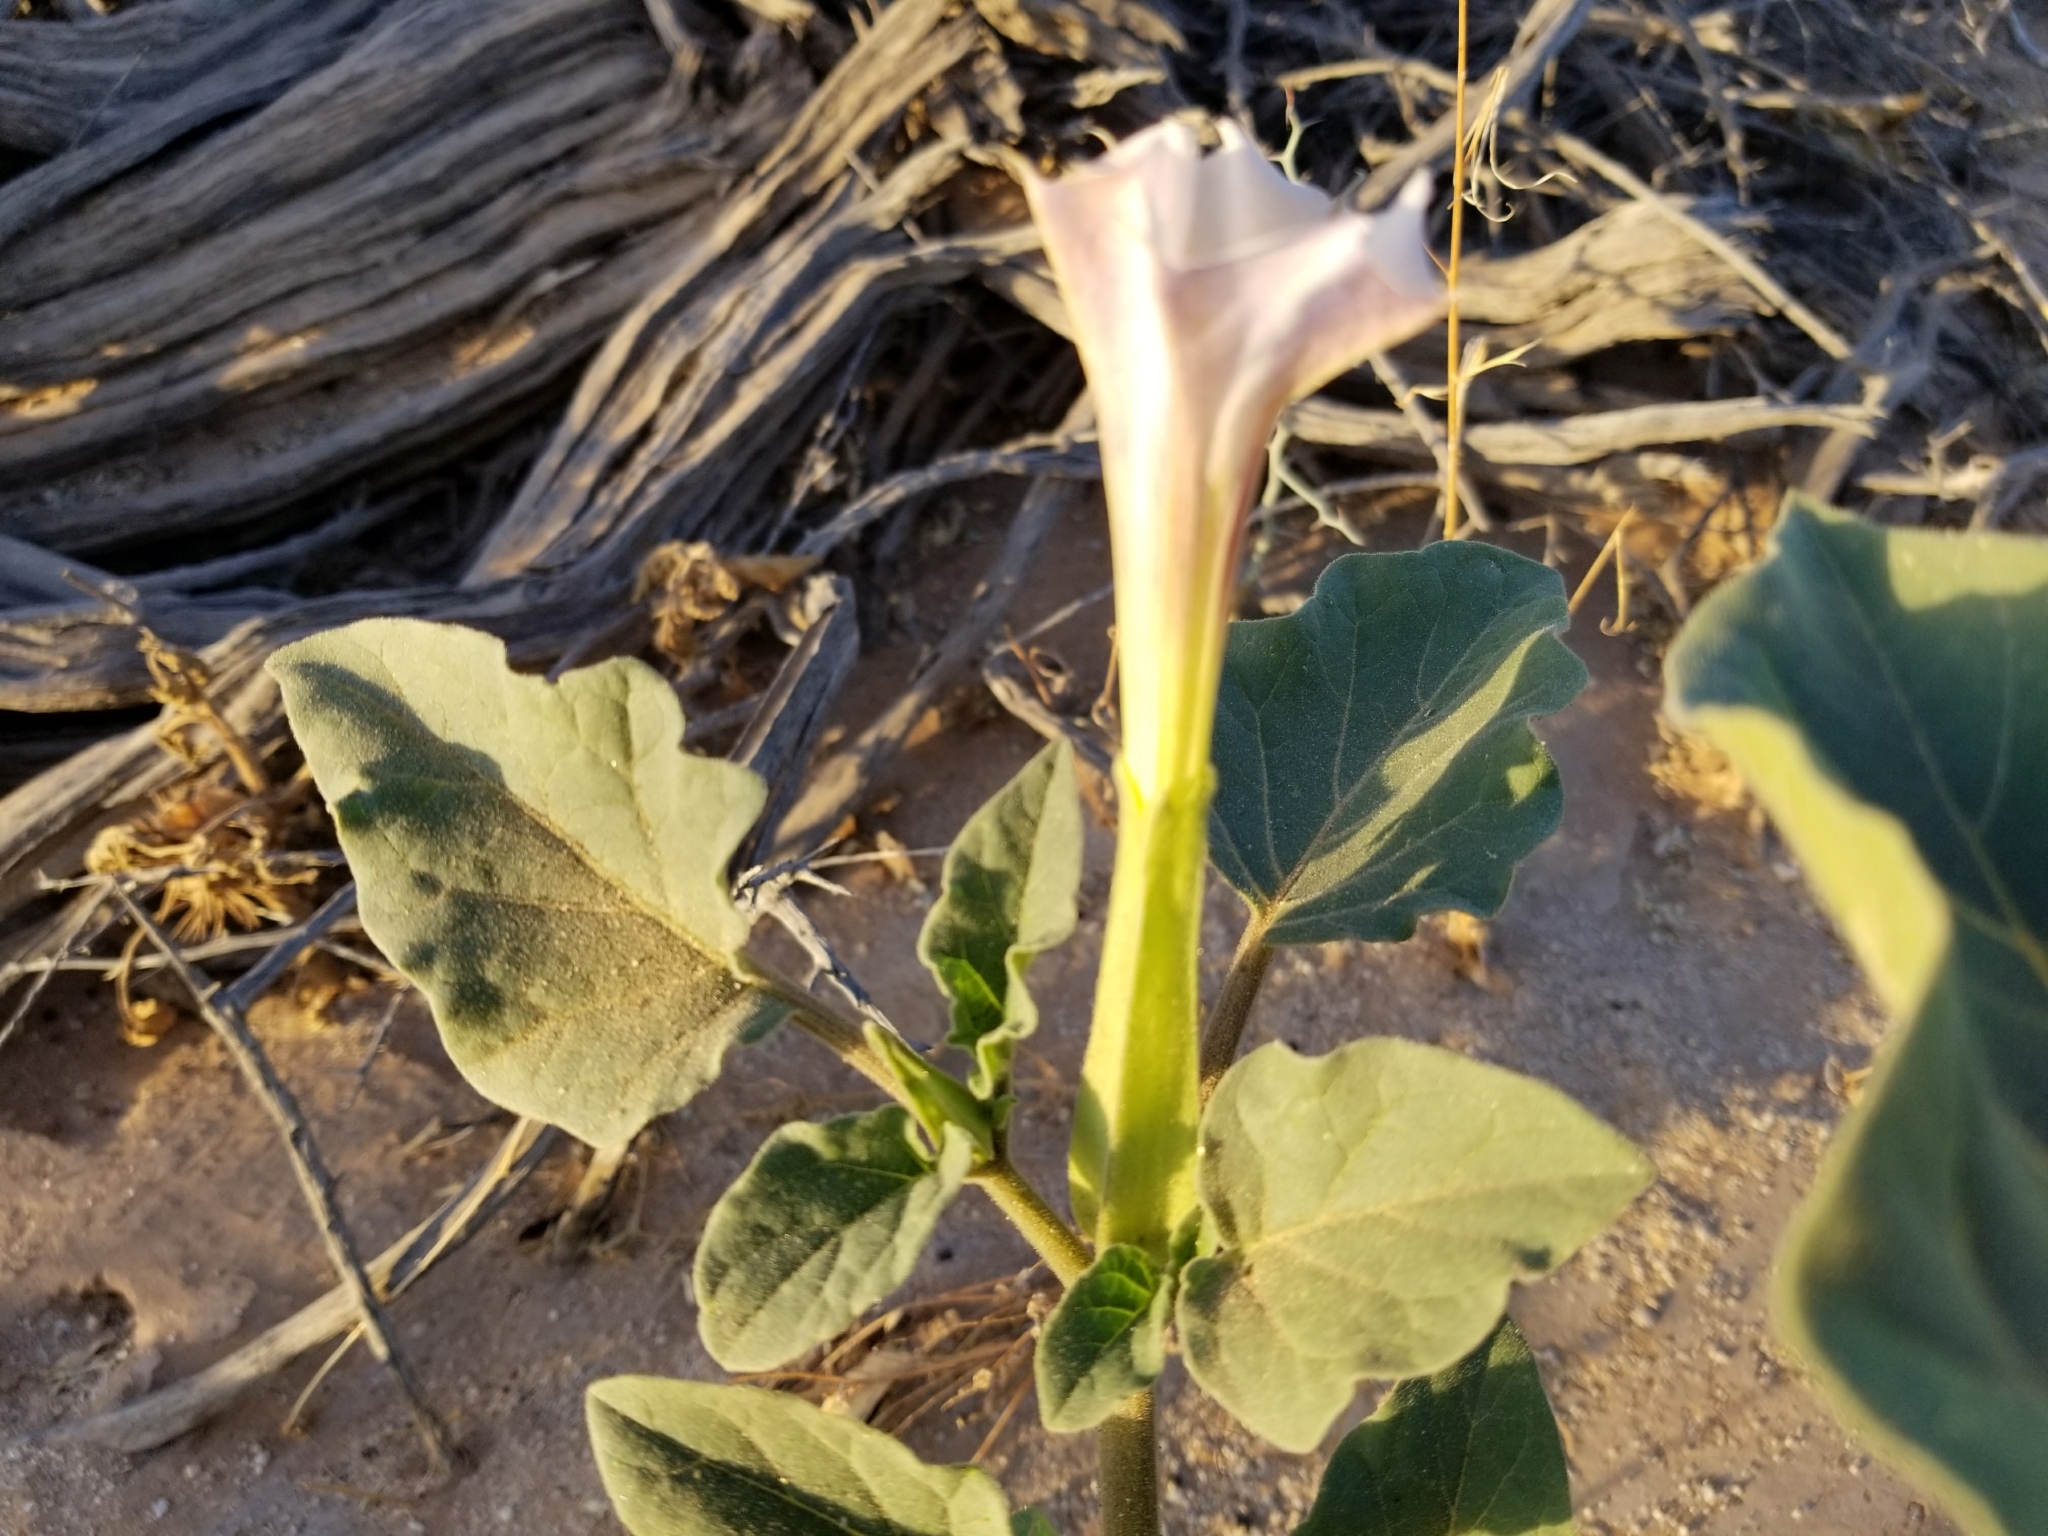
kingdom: Plantae
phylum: Tracheophyta
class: Magnoliopsida
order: Solanales
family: Solanaceae
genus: Datura
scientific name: Datura discolor
